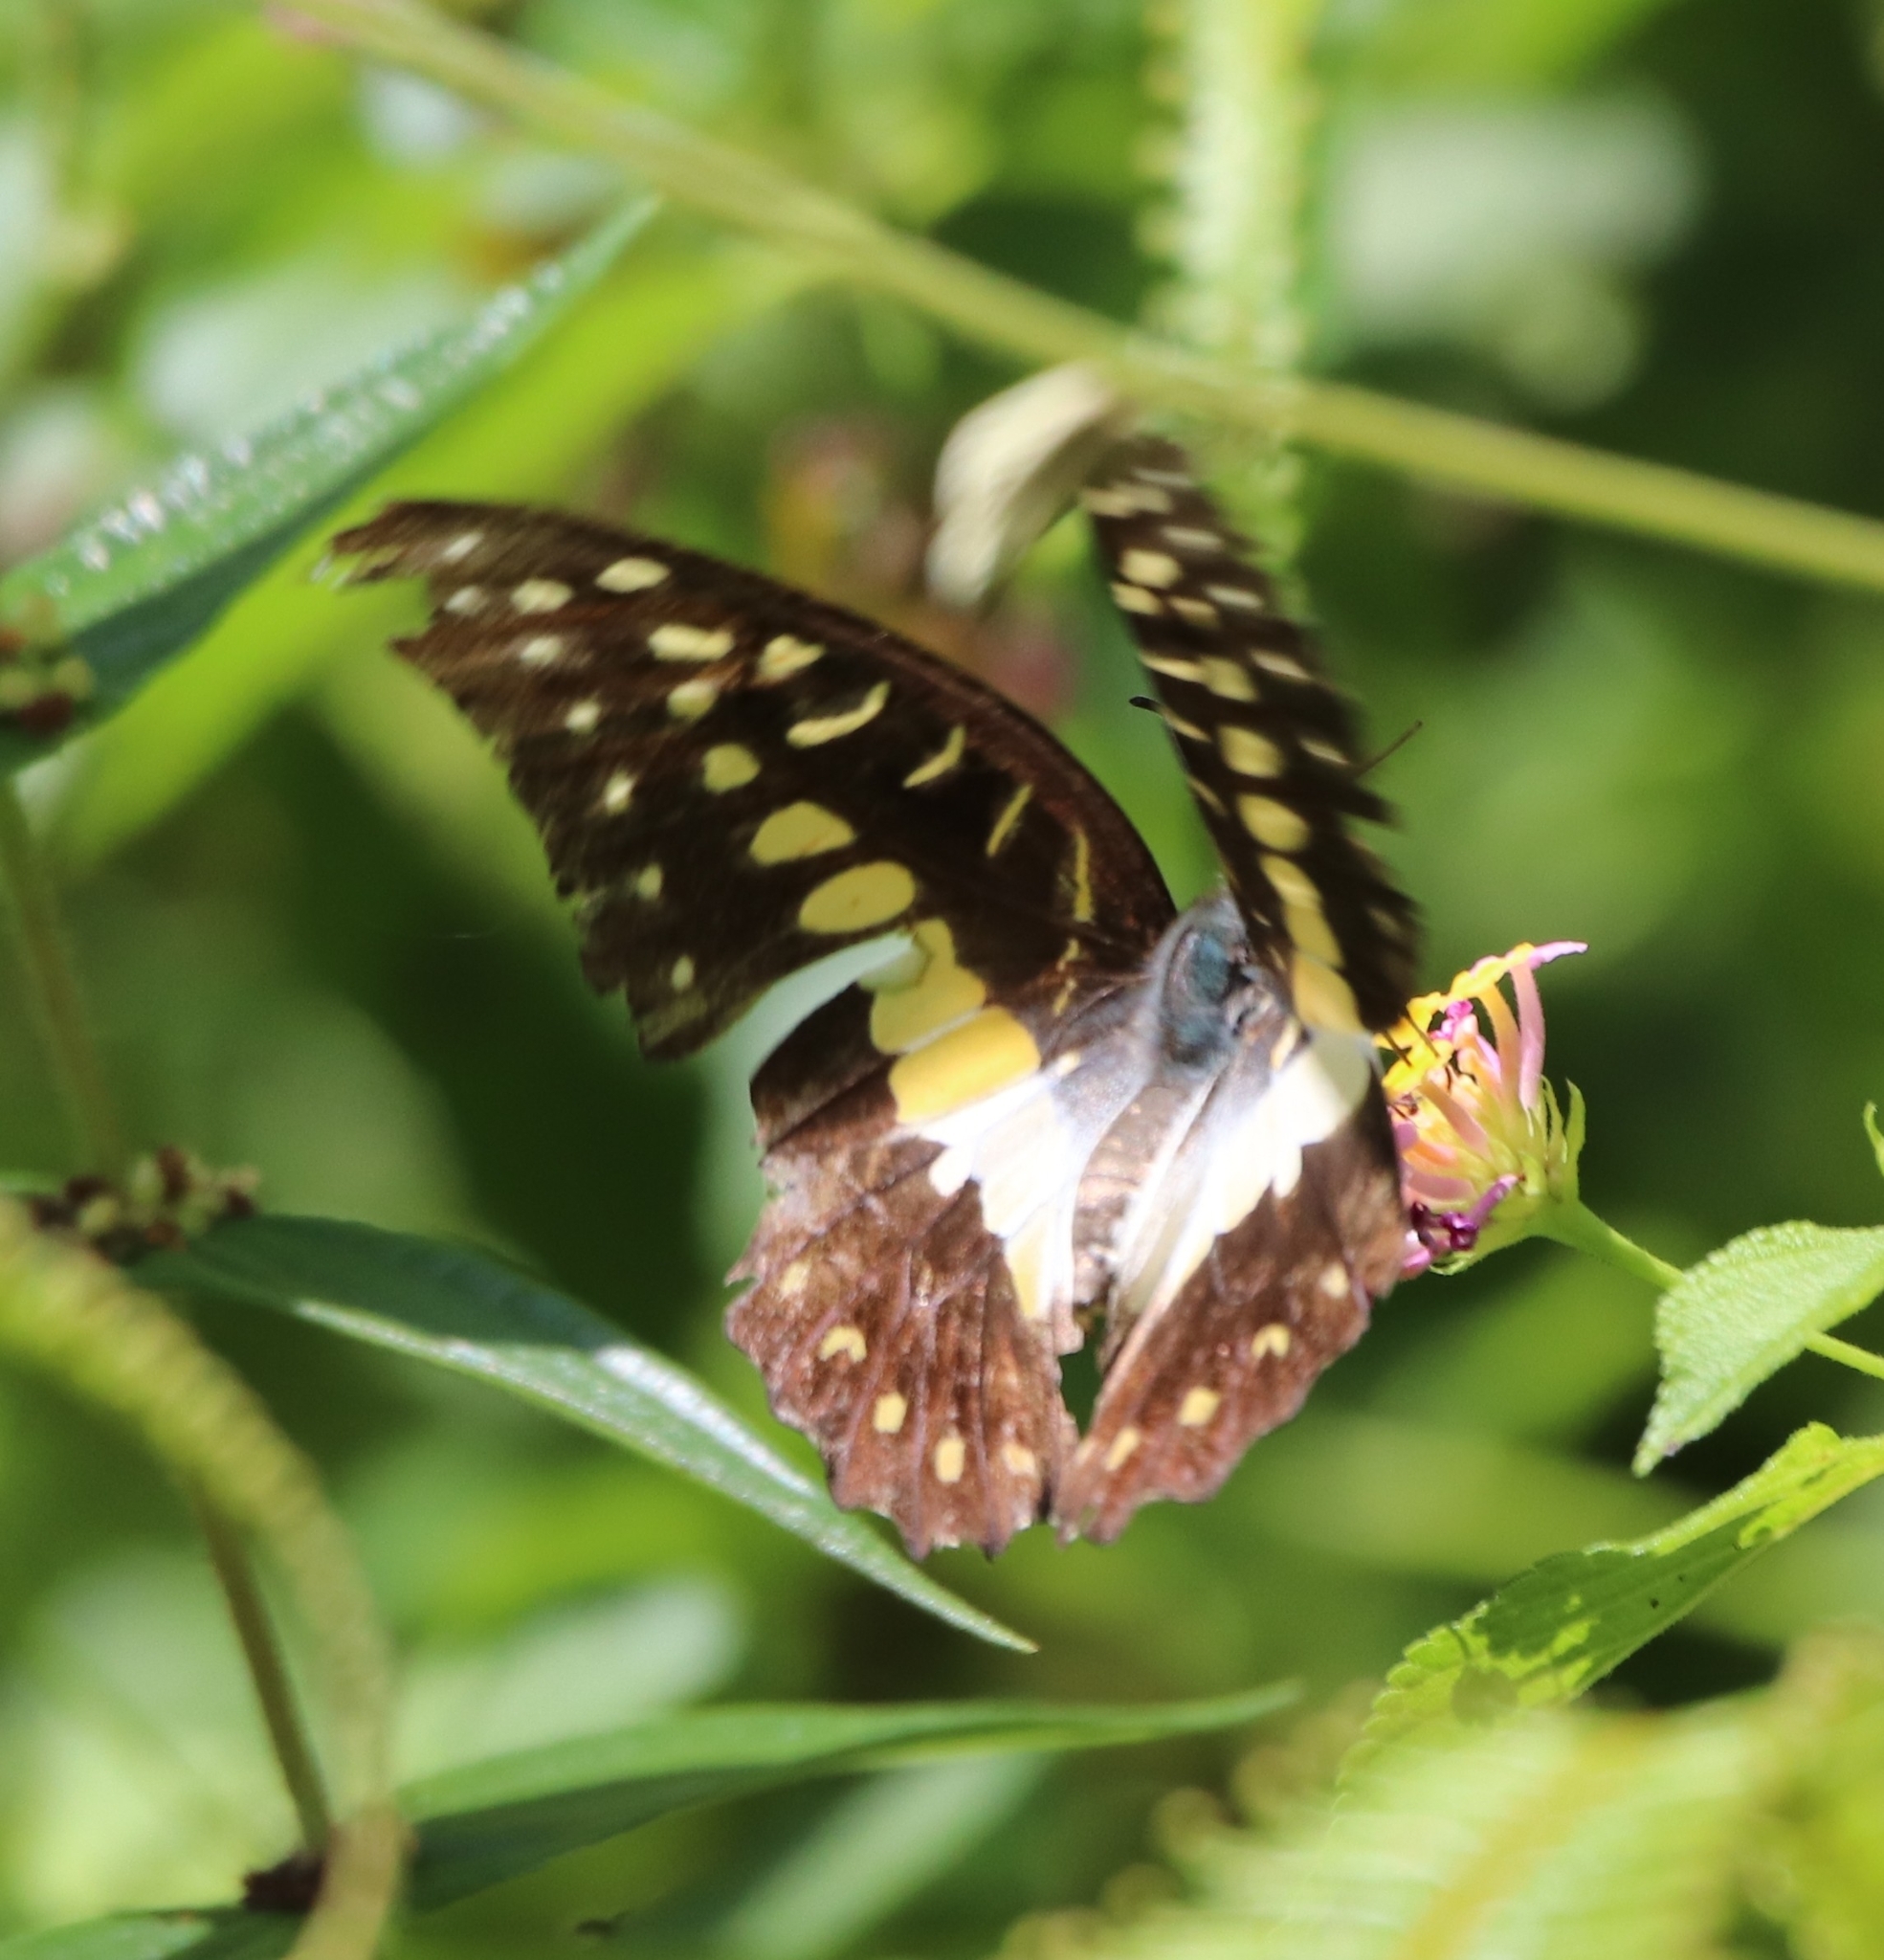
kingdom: Animalia
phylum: Arthropoda
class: Insecta
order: Lepidoptera
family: Papilionidae
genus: Graphium
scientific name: Graphium meyeri
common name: Meyer's triangle
